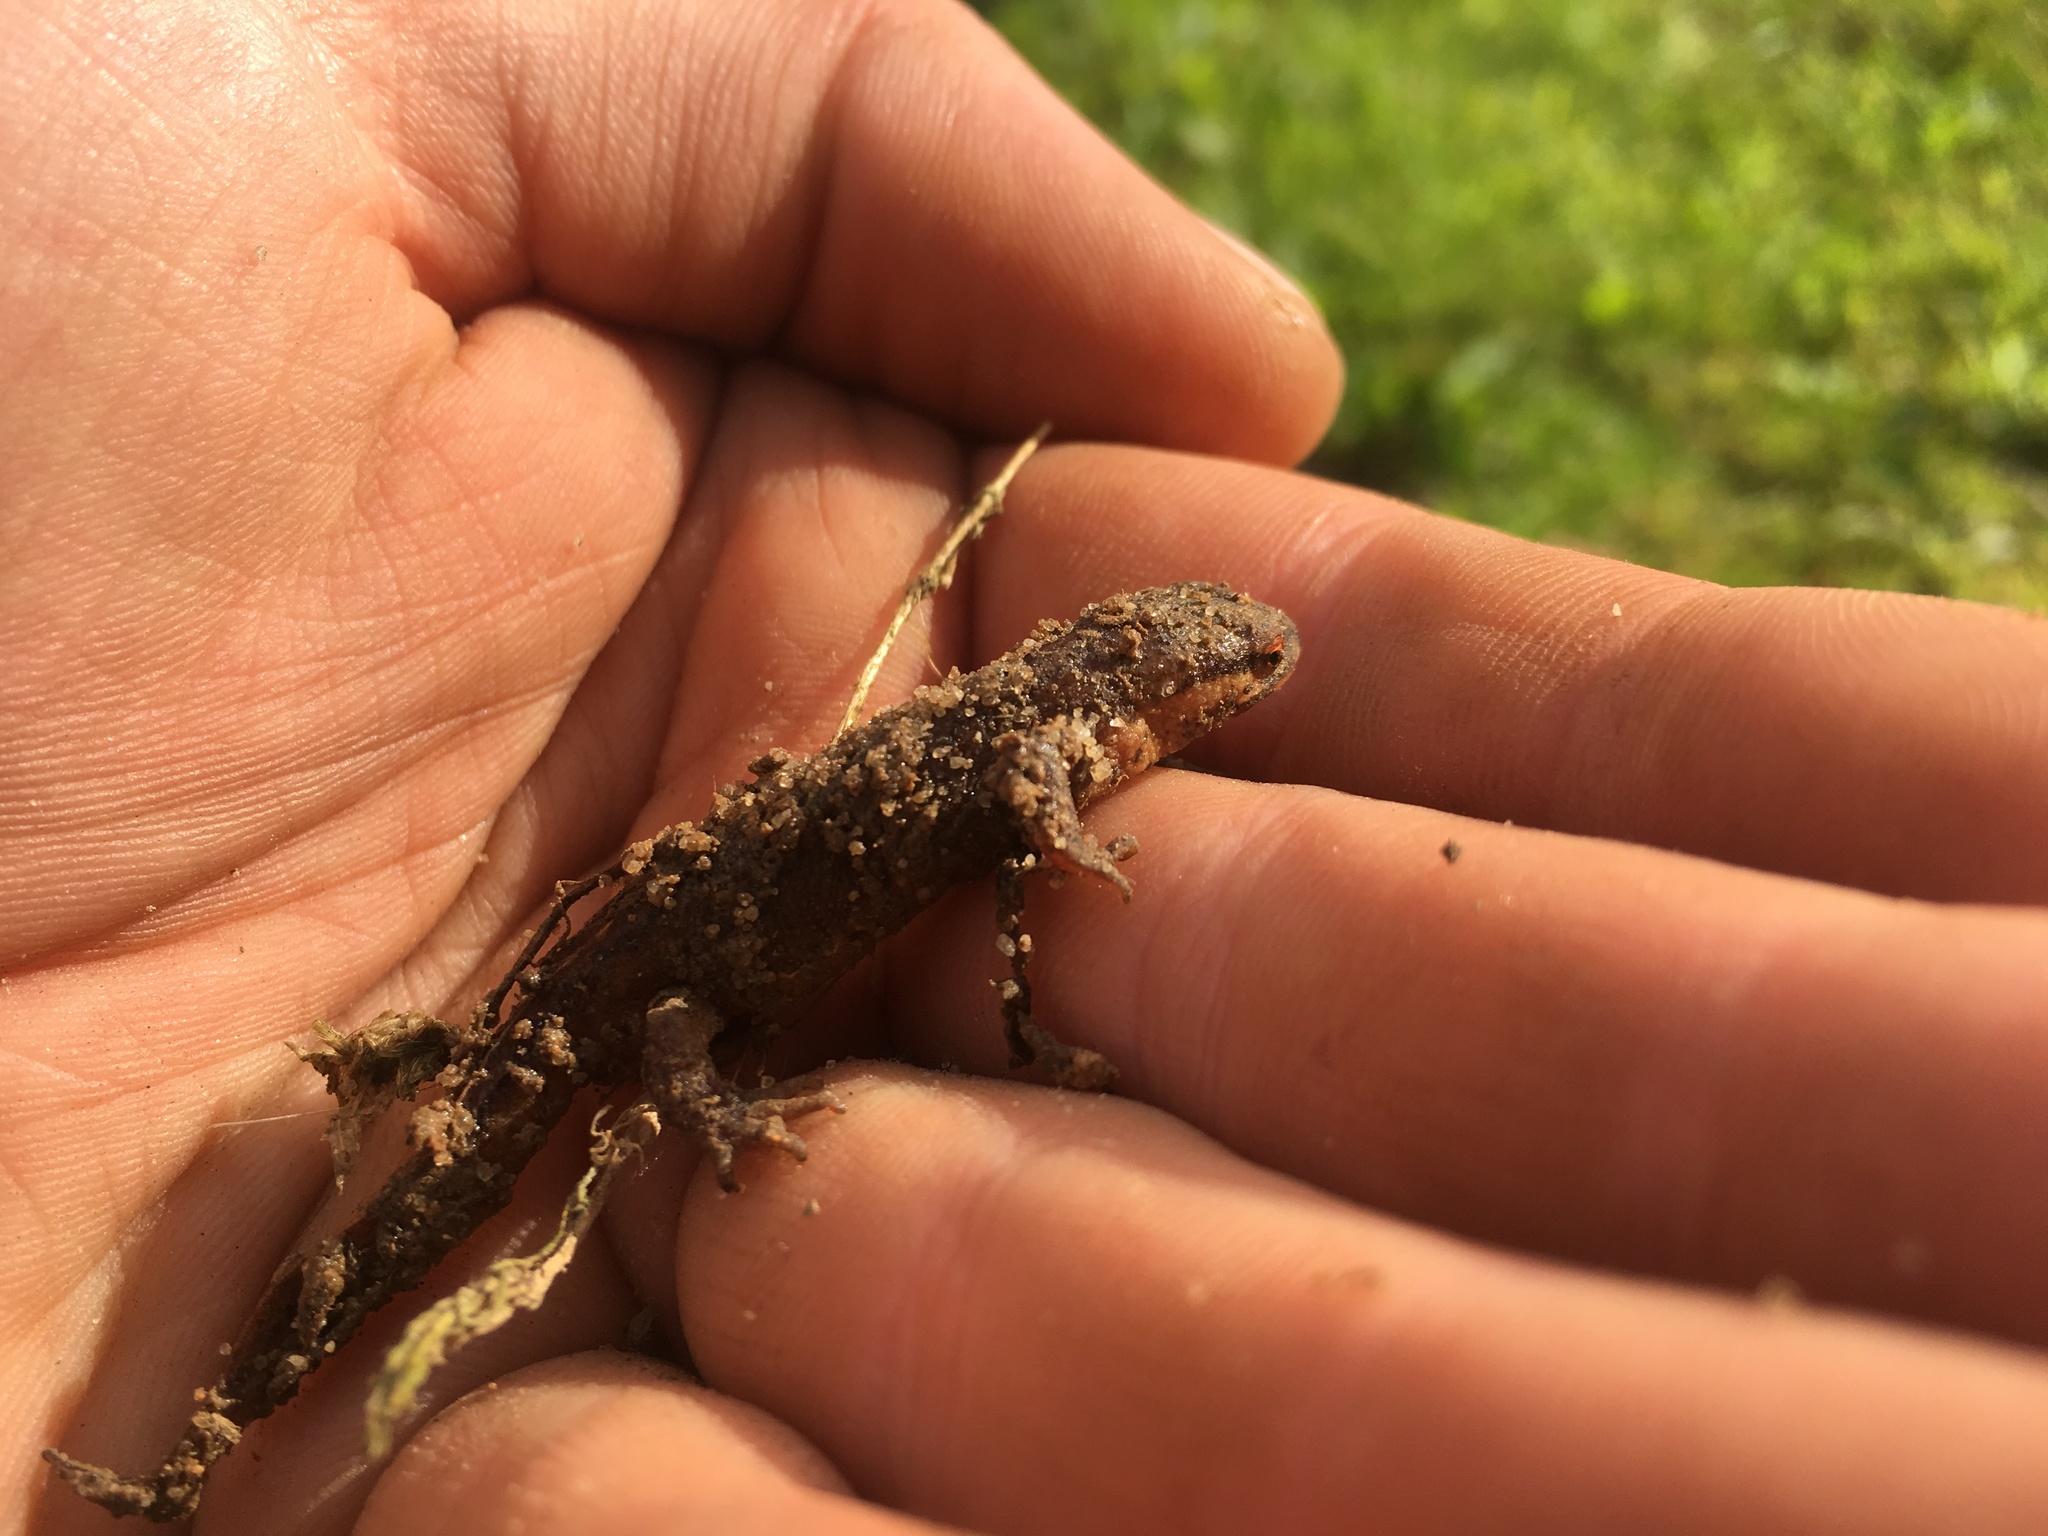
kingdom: Animalia
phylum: Chordata
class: Amphibia
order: Caudata
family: Salamandridae
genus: Lissotriton
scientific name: Lissotriton helveticus
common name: Palmate newt
